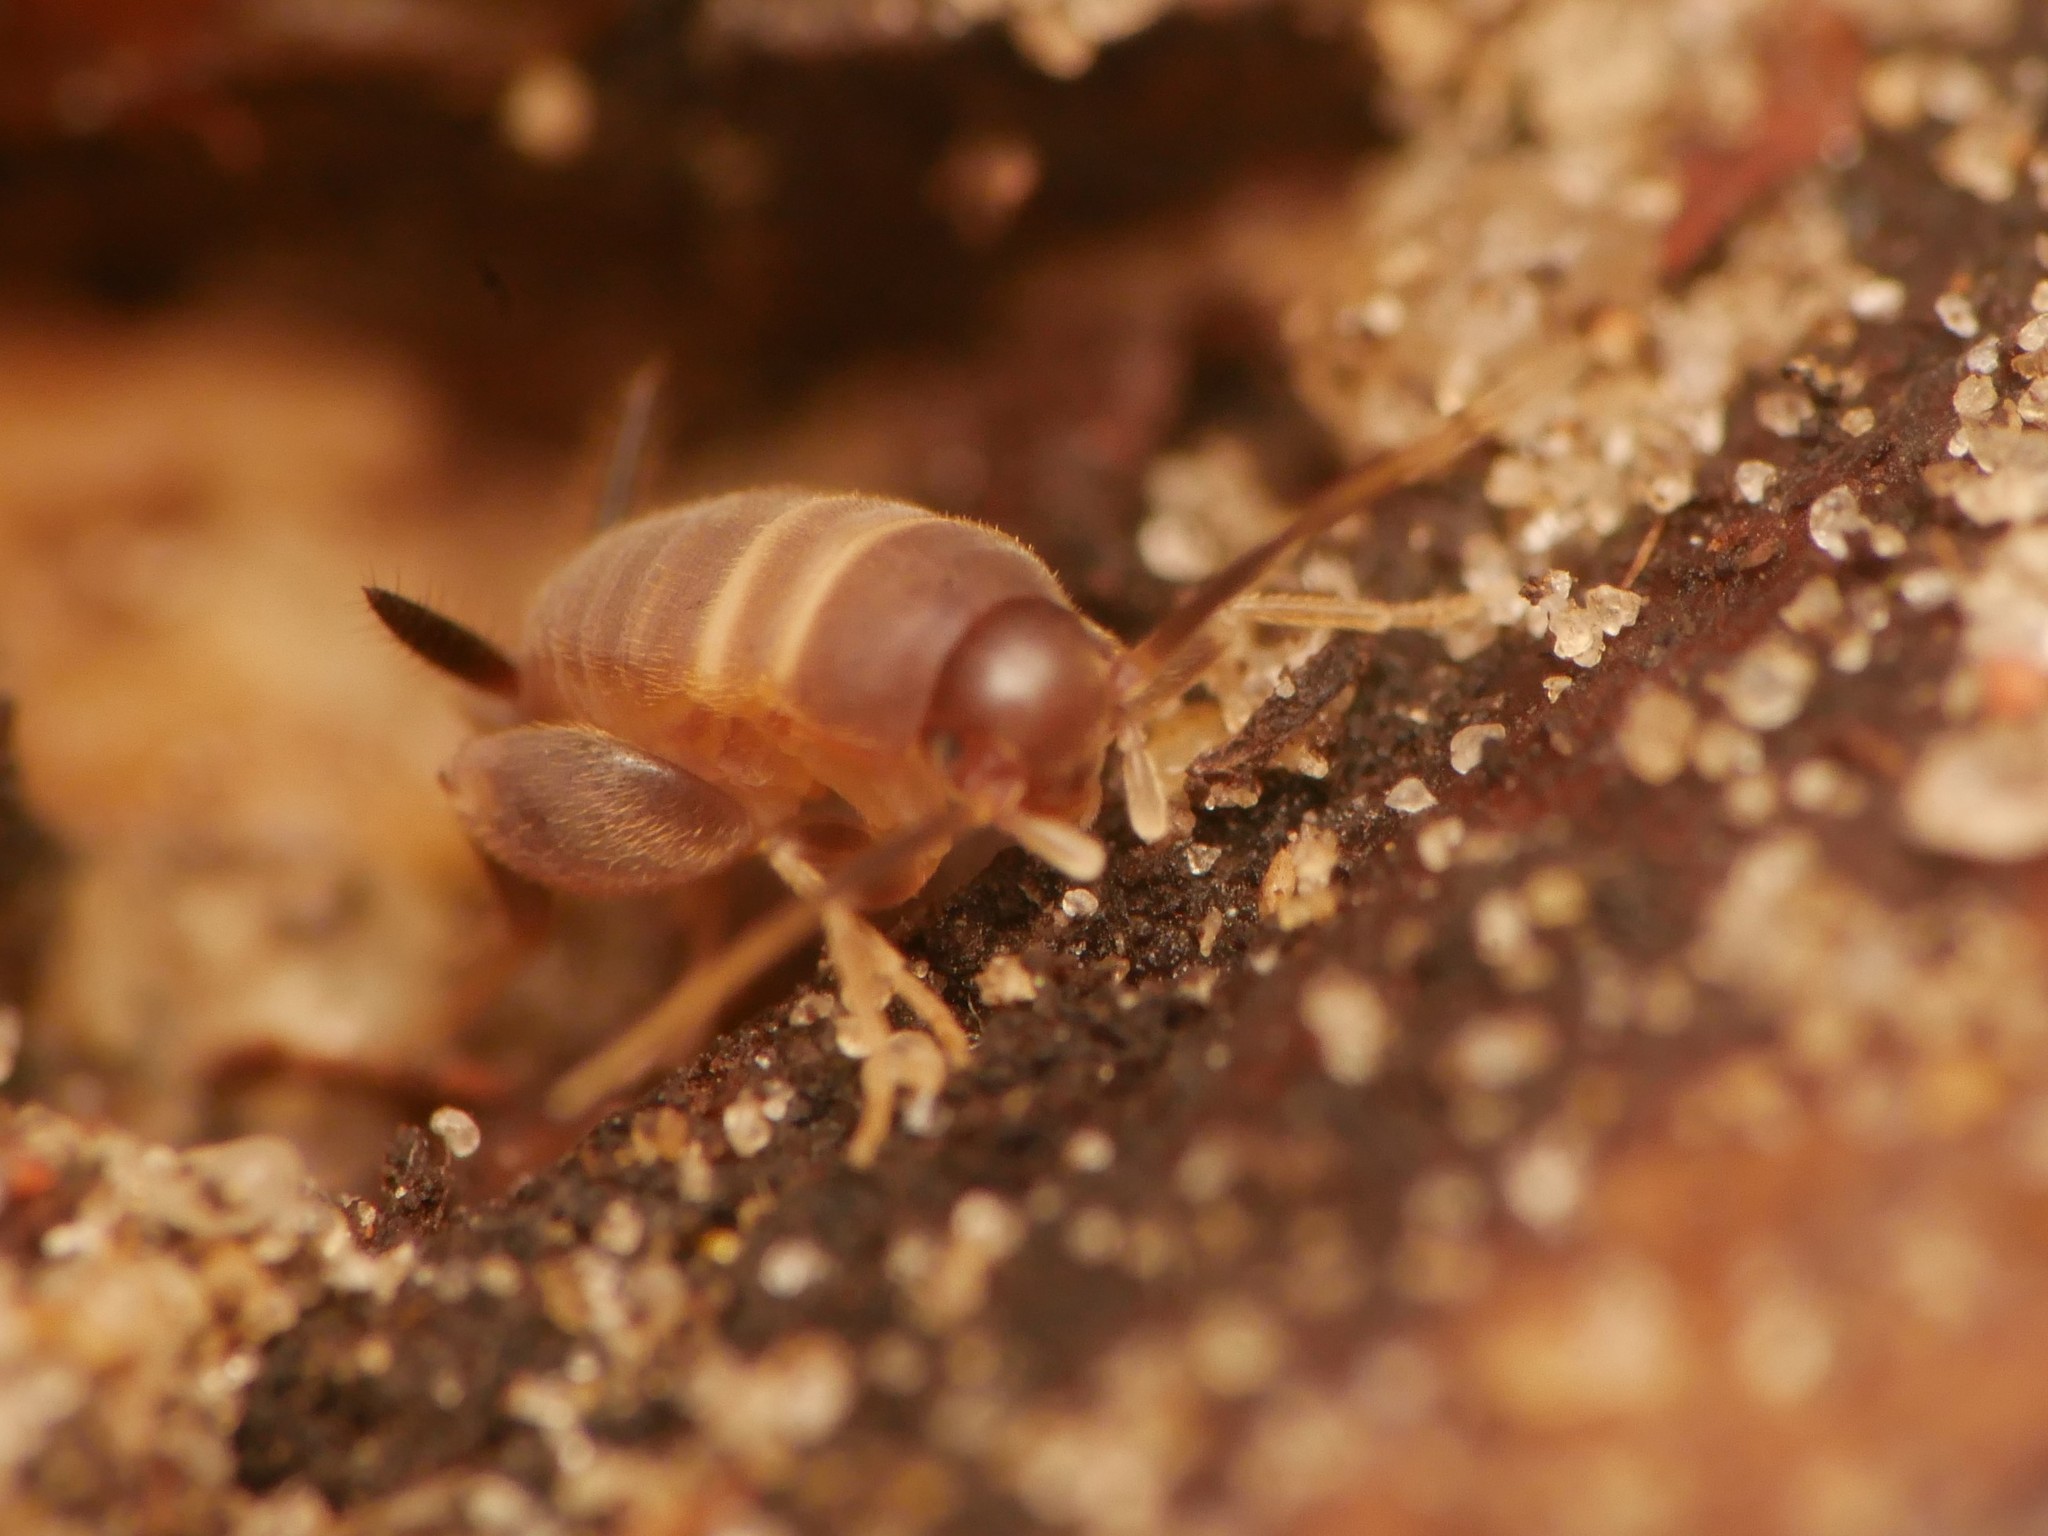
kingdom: Animalia
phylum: Arthropoda
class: Insecta
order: Orthoptera
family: Myrmecophilidae
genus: Myrmecophilus
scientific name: Myrmecophilus acervorum
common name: Ants-nest cricket
